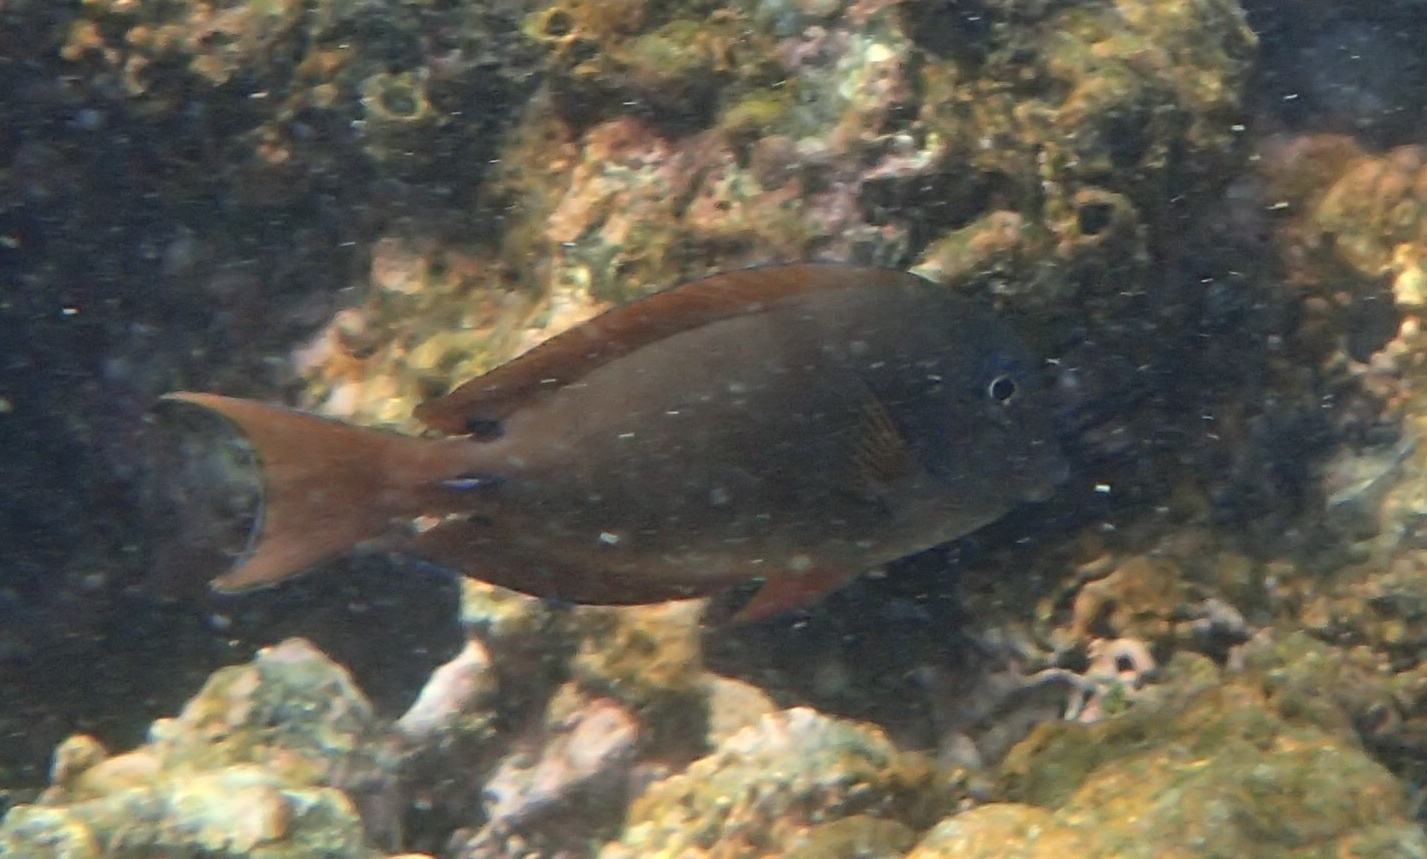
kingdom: Animalia
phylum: Chordata
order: Perciformes
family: Acanthuridae
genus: Acanthurus
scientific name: Acanthurus nigrofuscus
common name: Blackspot surgeonfish
